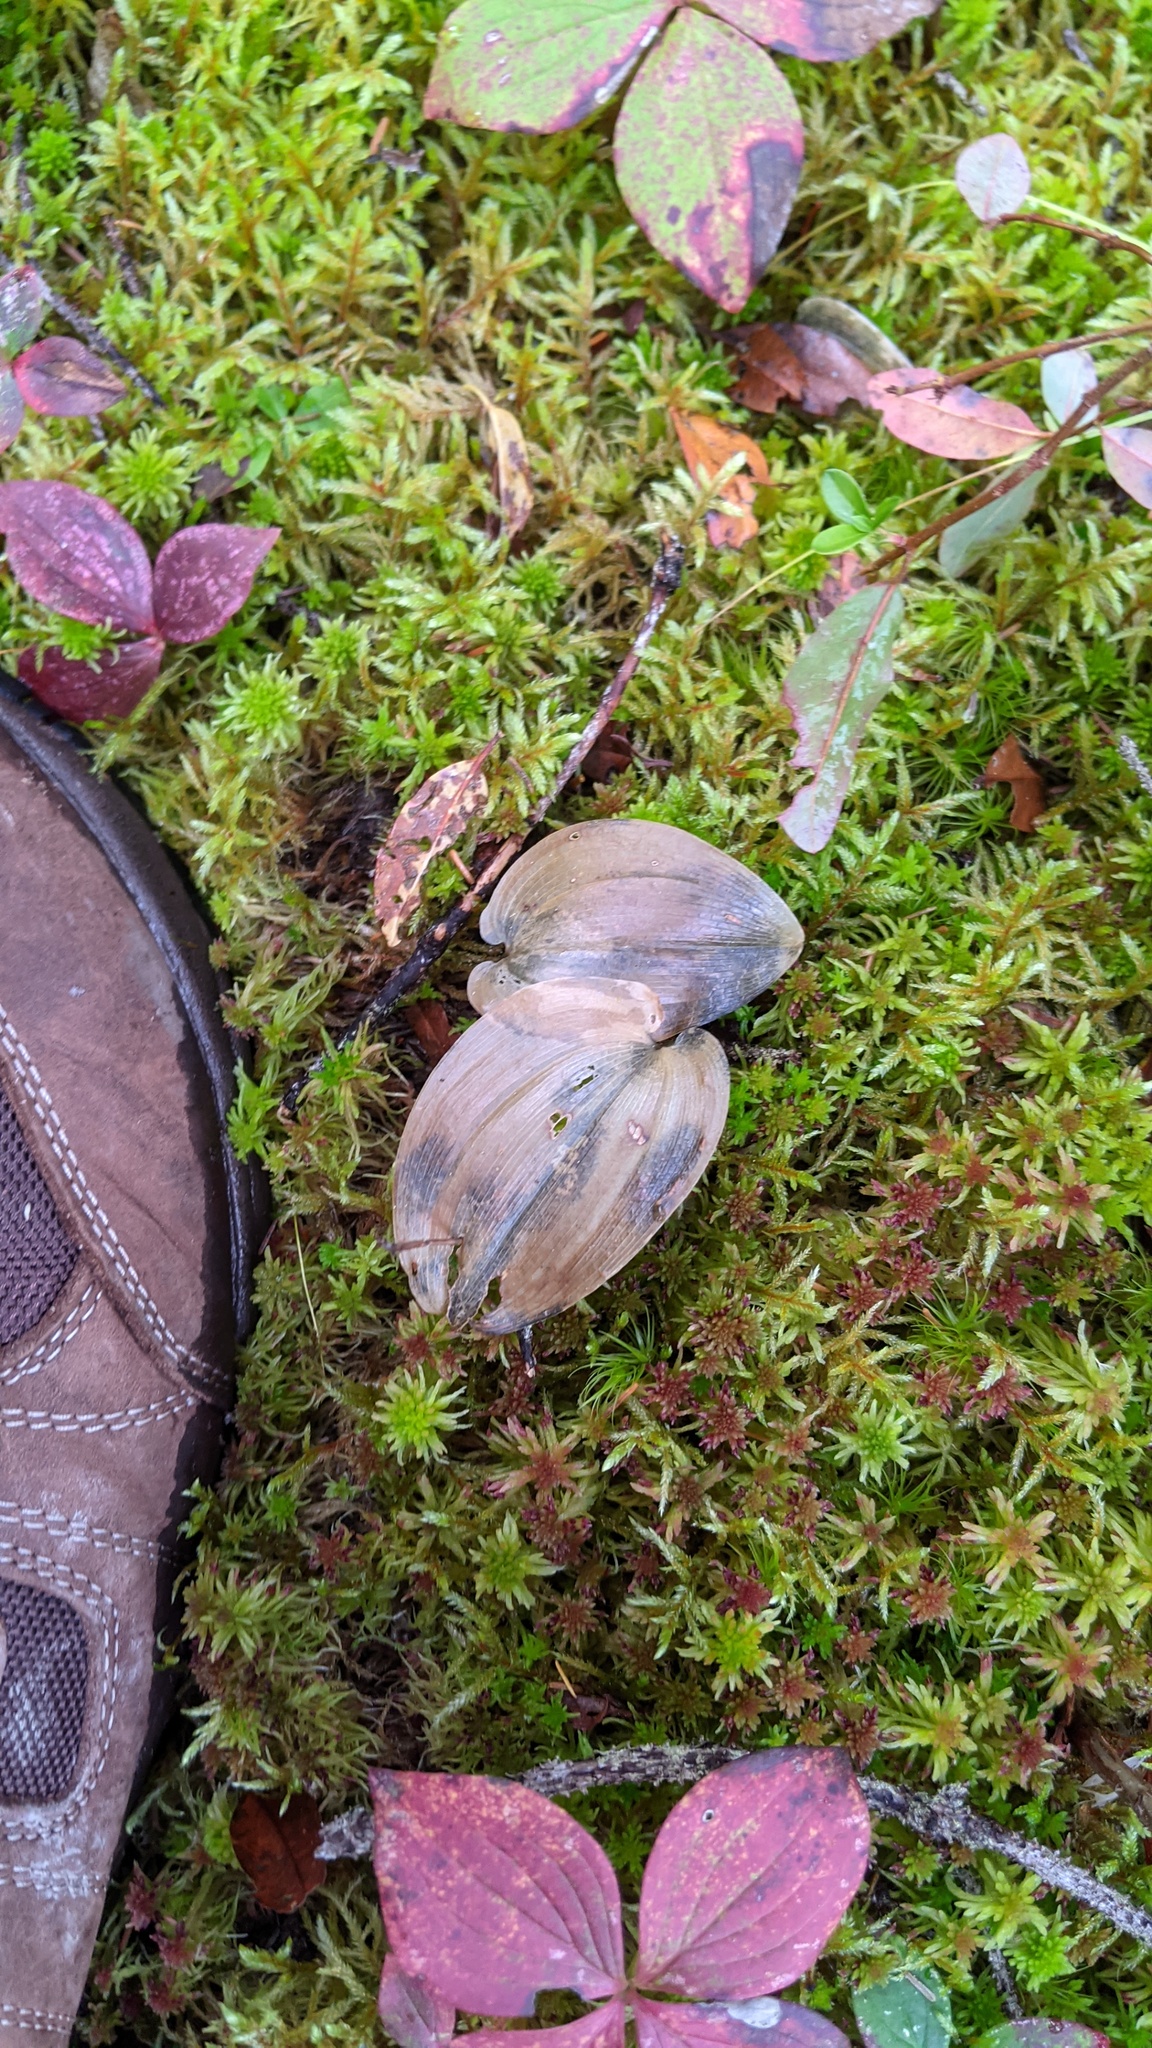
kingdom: Plantae
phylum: Tracheophyta
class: Liliopsida
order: Asparagales
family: Asparagaceae
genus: Maianthemum
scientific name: Maianthemum canadense
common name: False lily-of-the-valley
